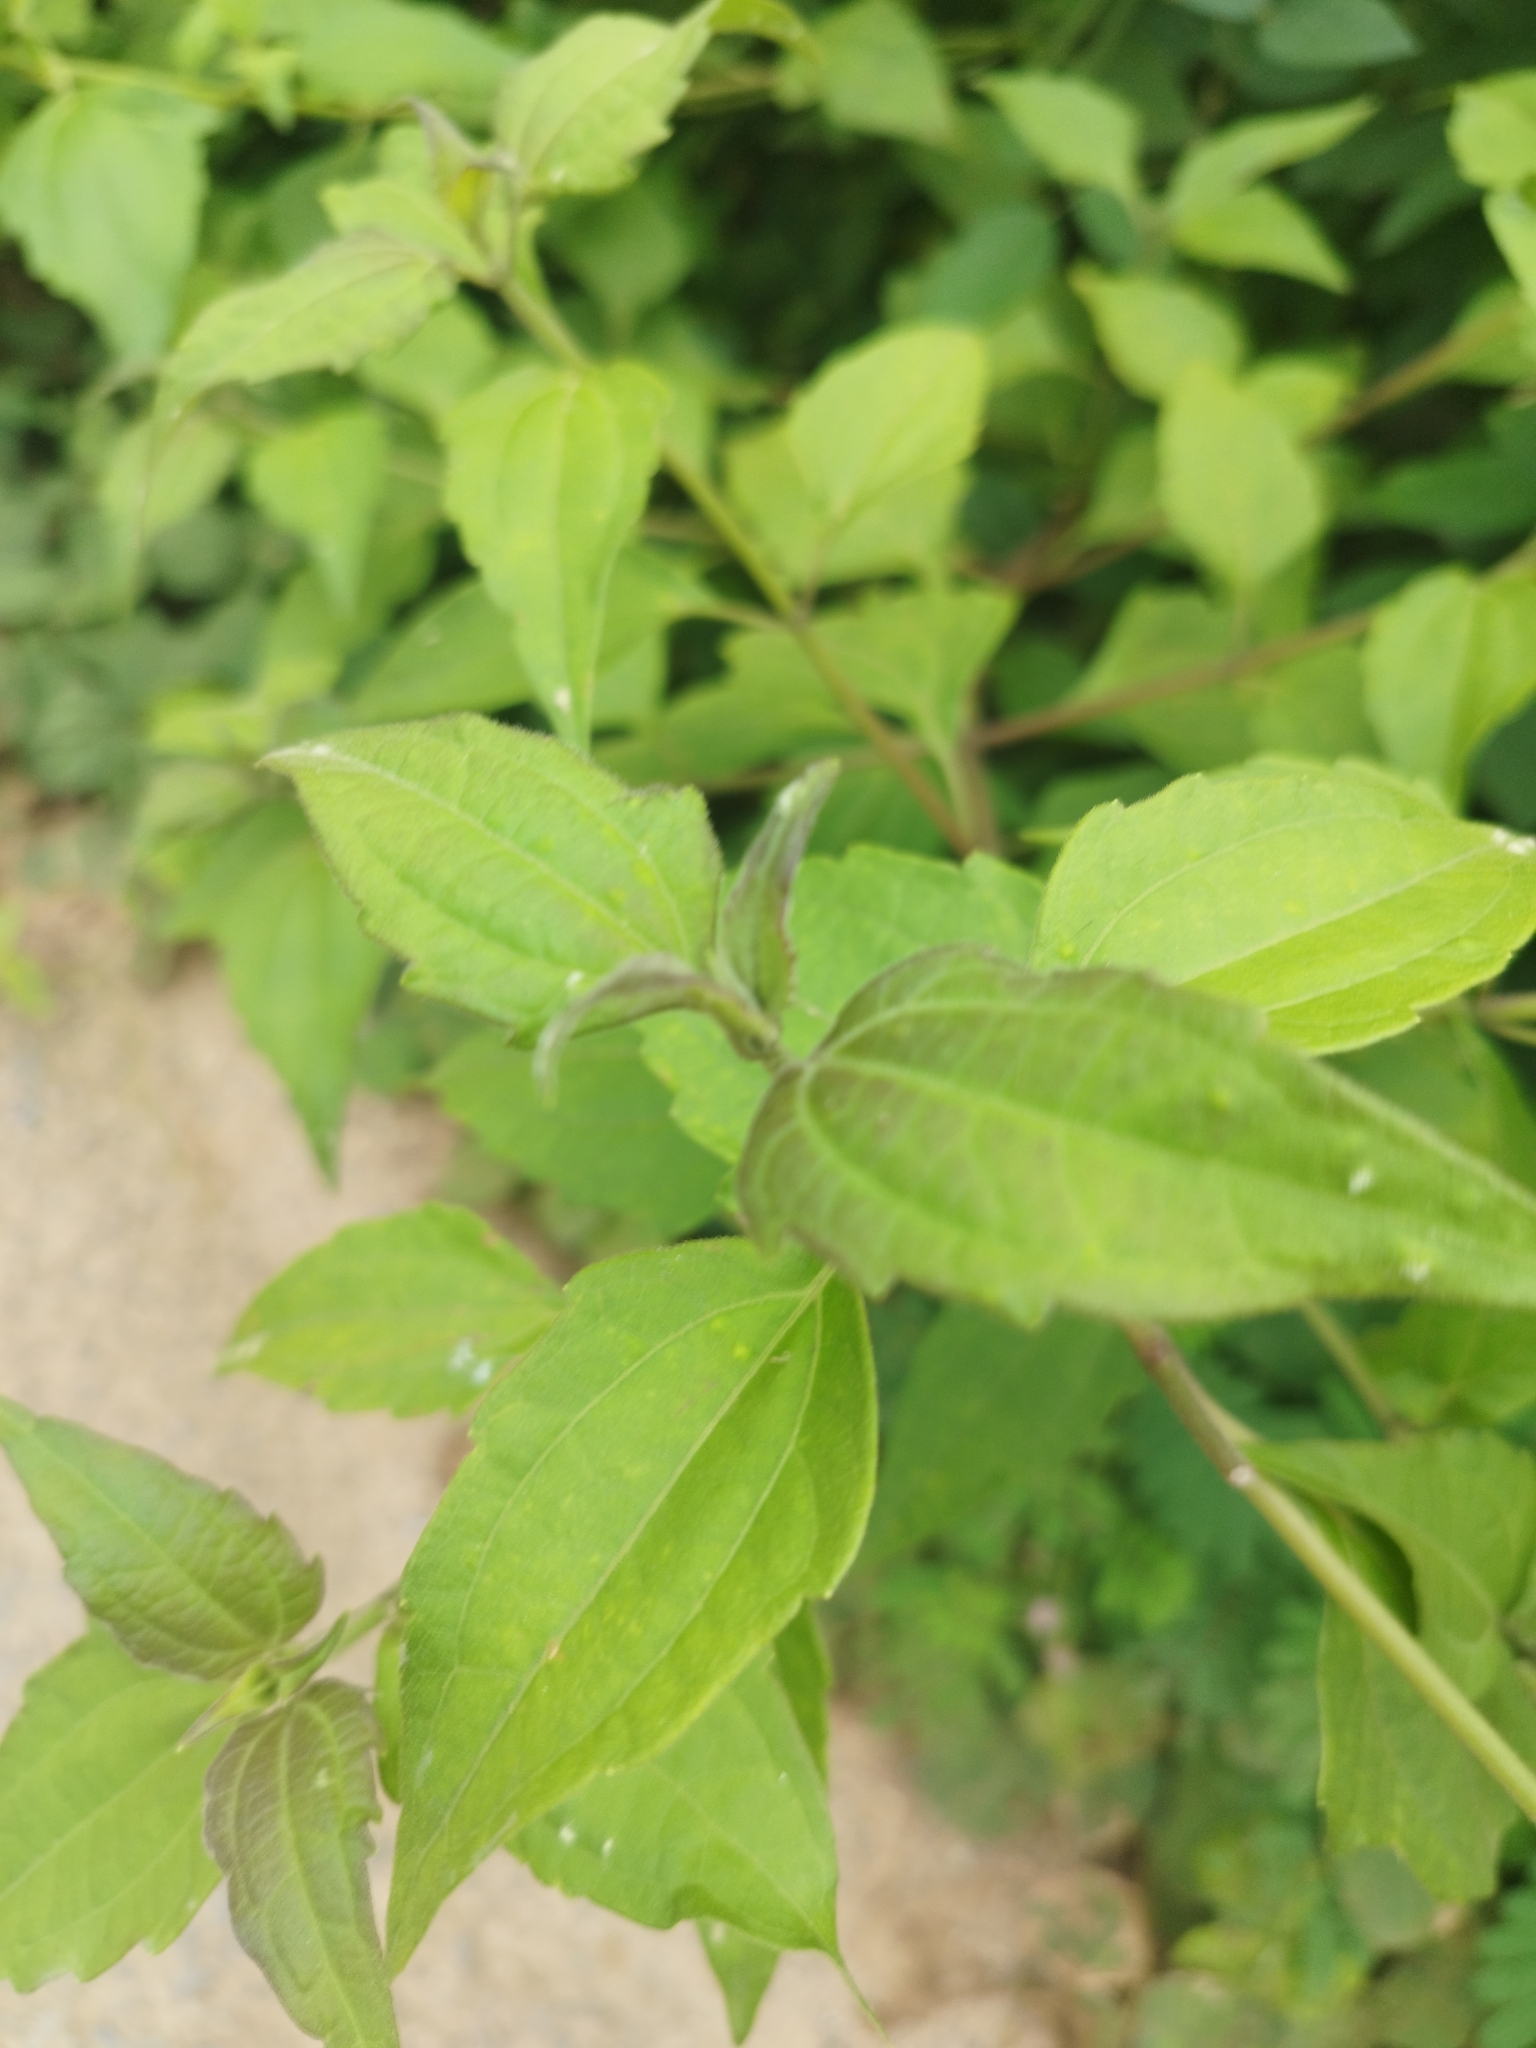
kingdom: Plantae
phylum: Tracheophyta
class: Magnoliopsida
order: Asterales
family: Asteraceae
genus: Chromolaena
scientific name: Chromolaena odorata
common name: Siamweed
